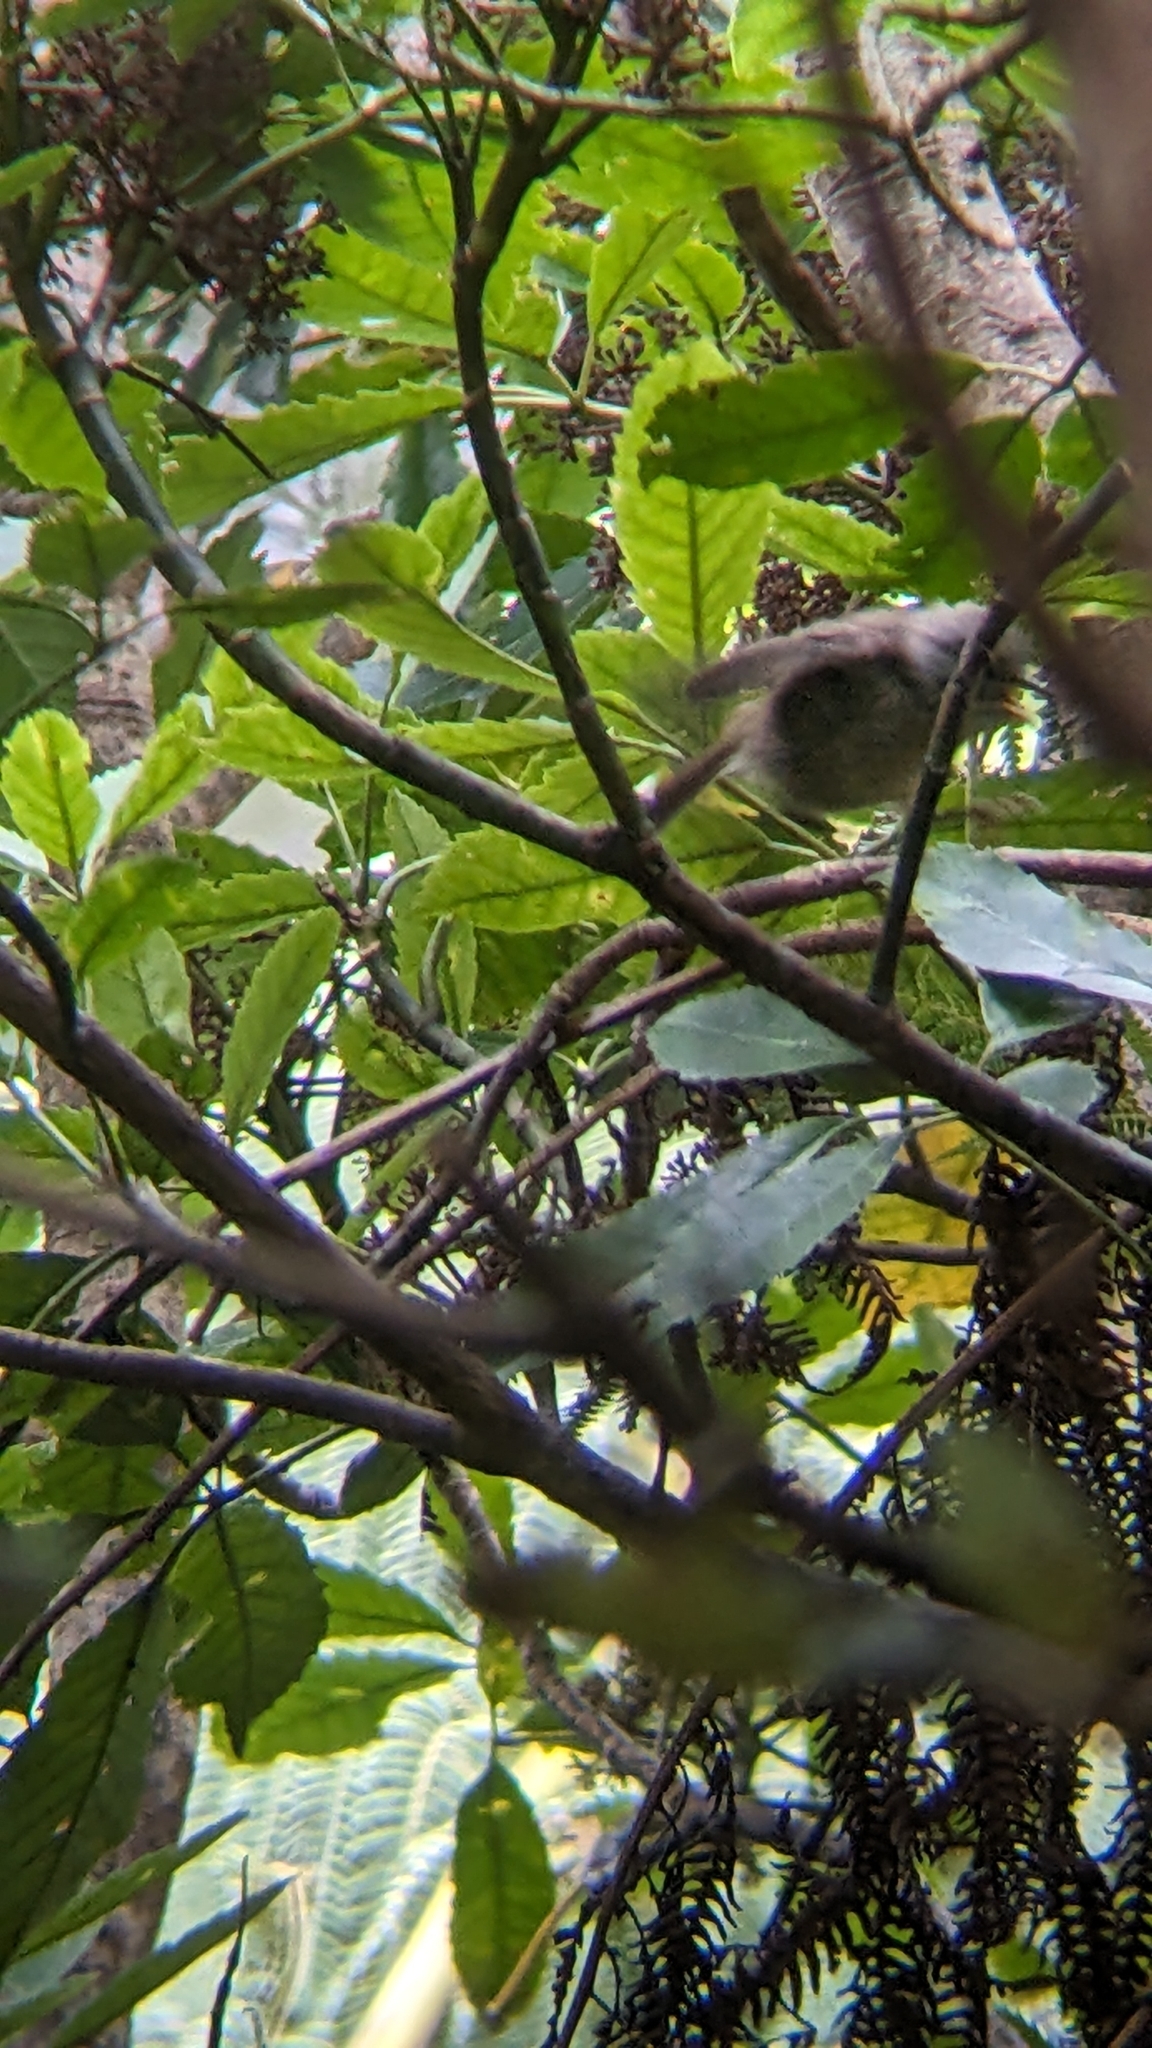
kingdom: Animalia
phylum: Chordata
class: Aves
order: Passeriformes
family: Acanthizidae
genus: Mohoua
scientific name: Mohoua albicilla
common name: Whitehead
